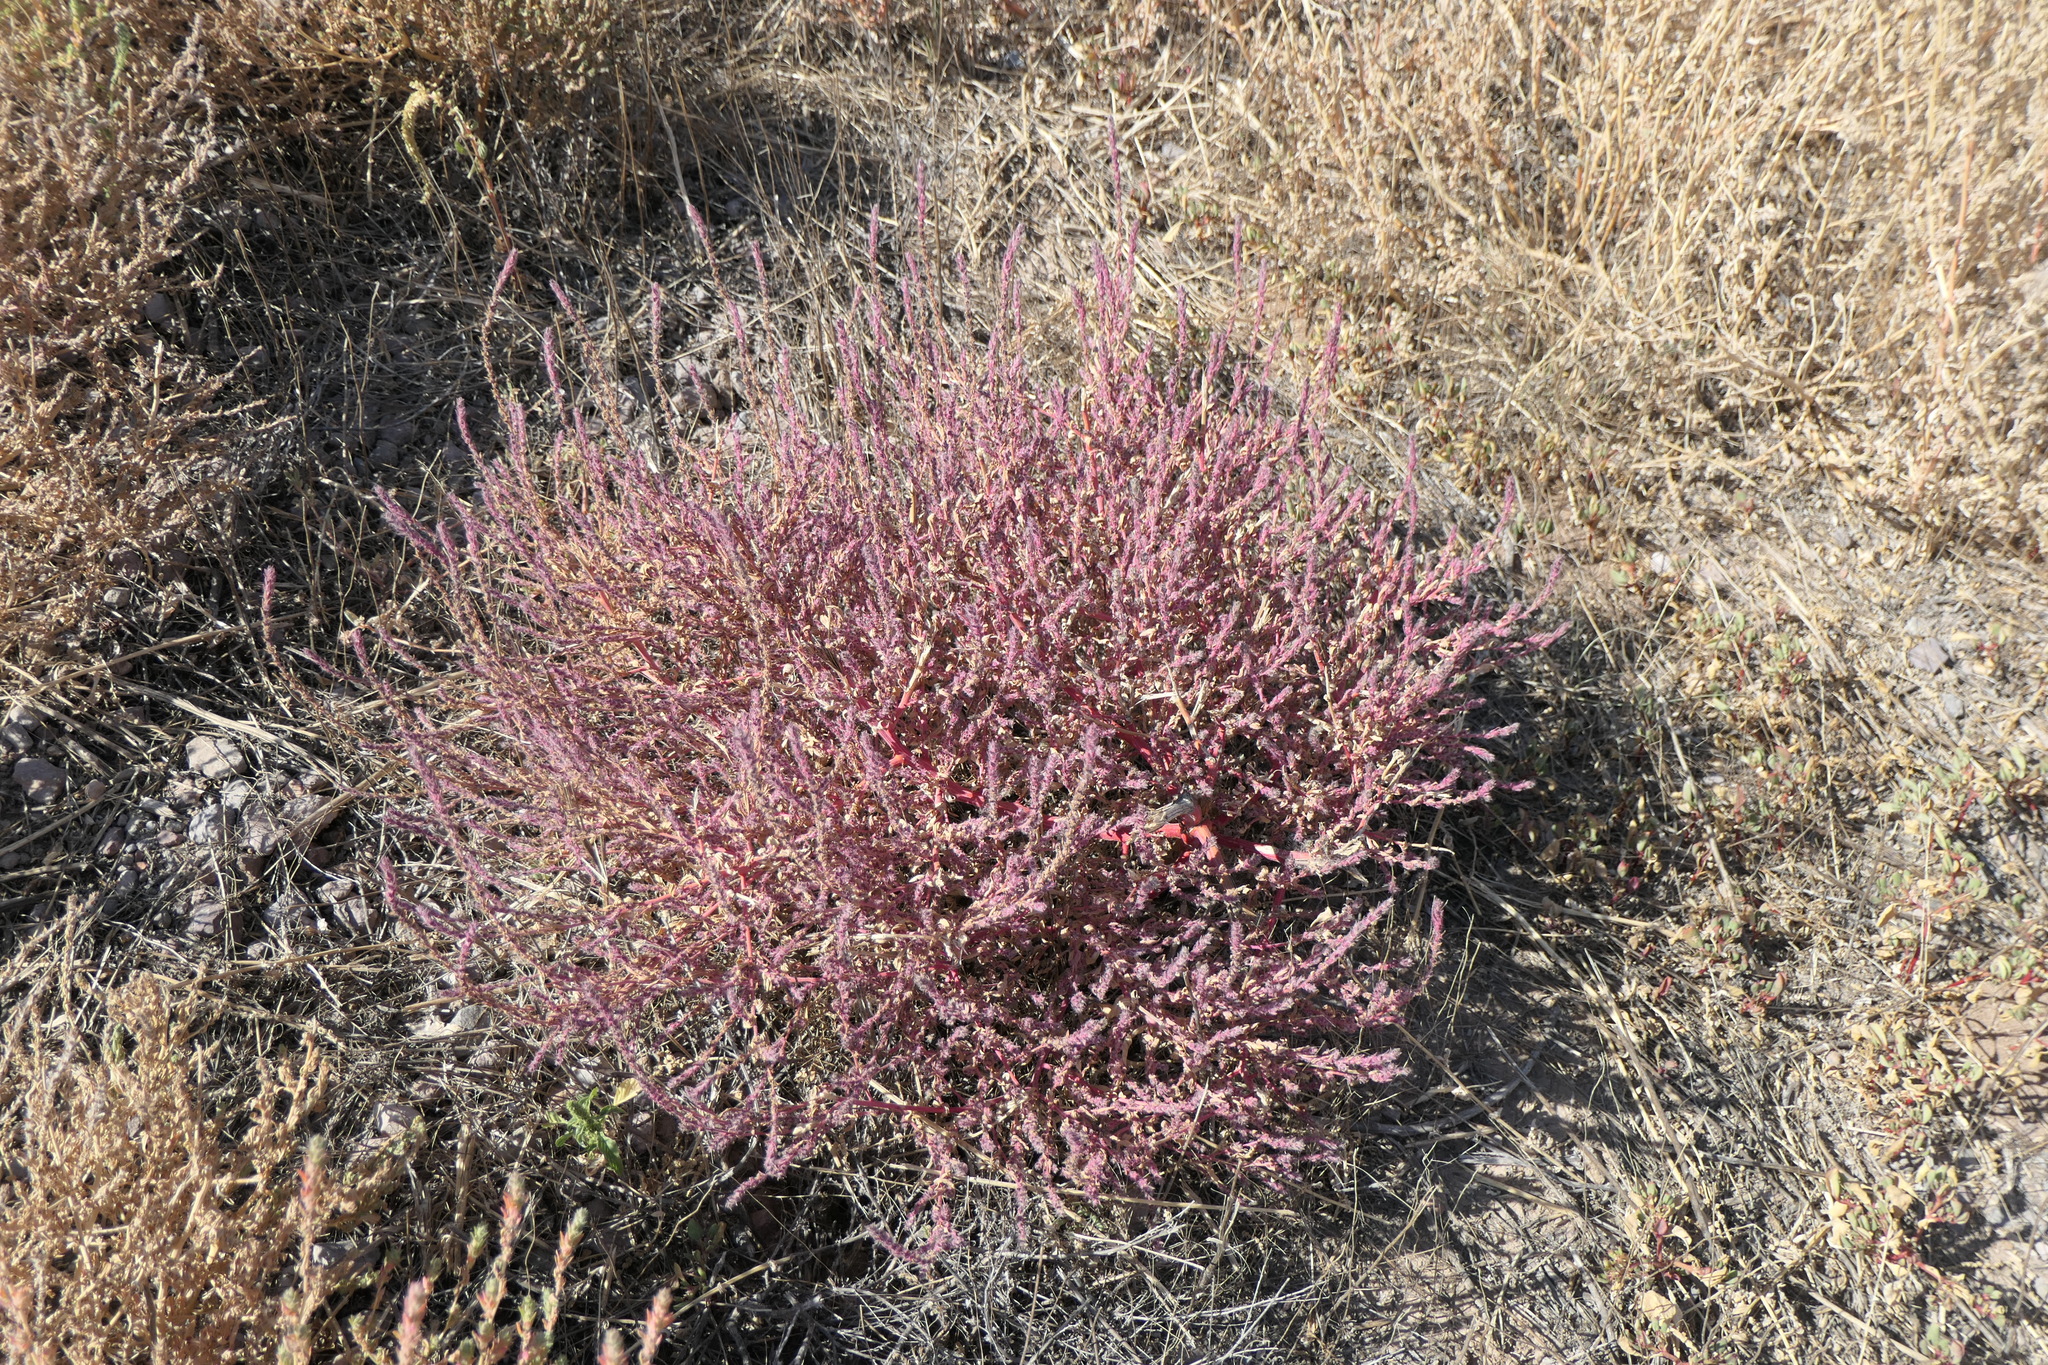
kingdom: Plantae
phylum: Tracheophyta
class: Magnoliopsida
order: Caryophyllales
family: Amaranthaceae
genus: Bassia
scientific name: Bassia scoparia
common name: Belvedere
